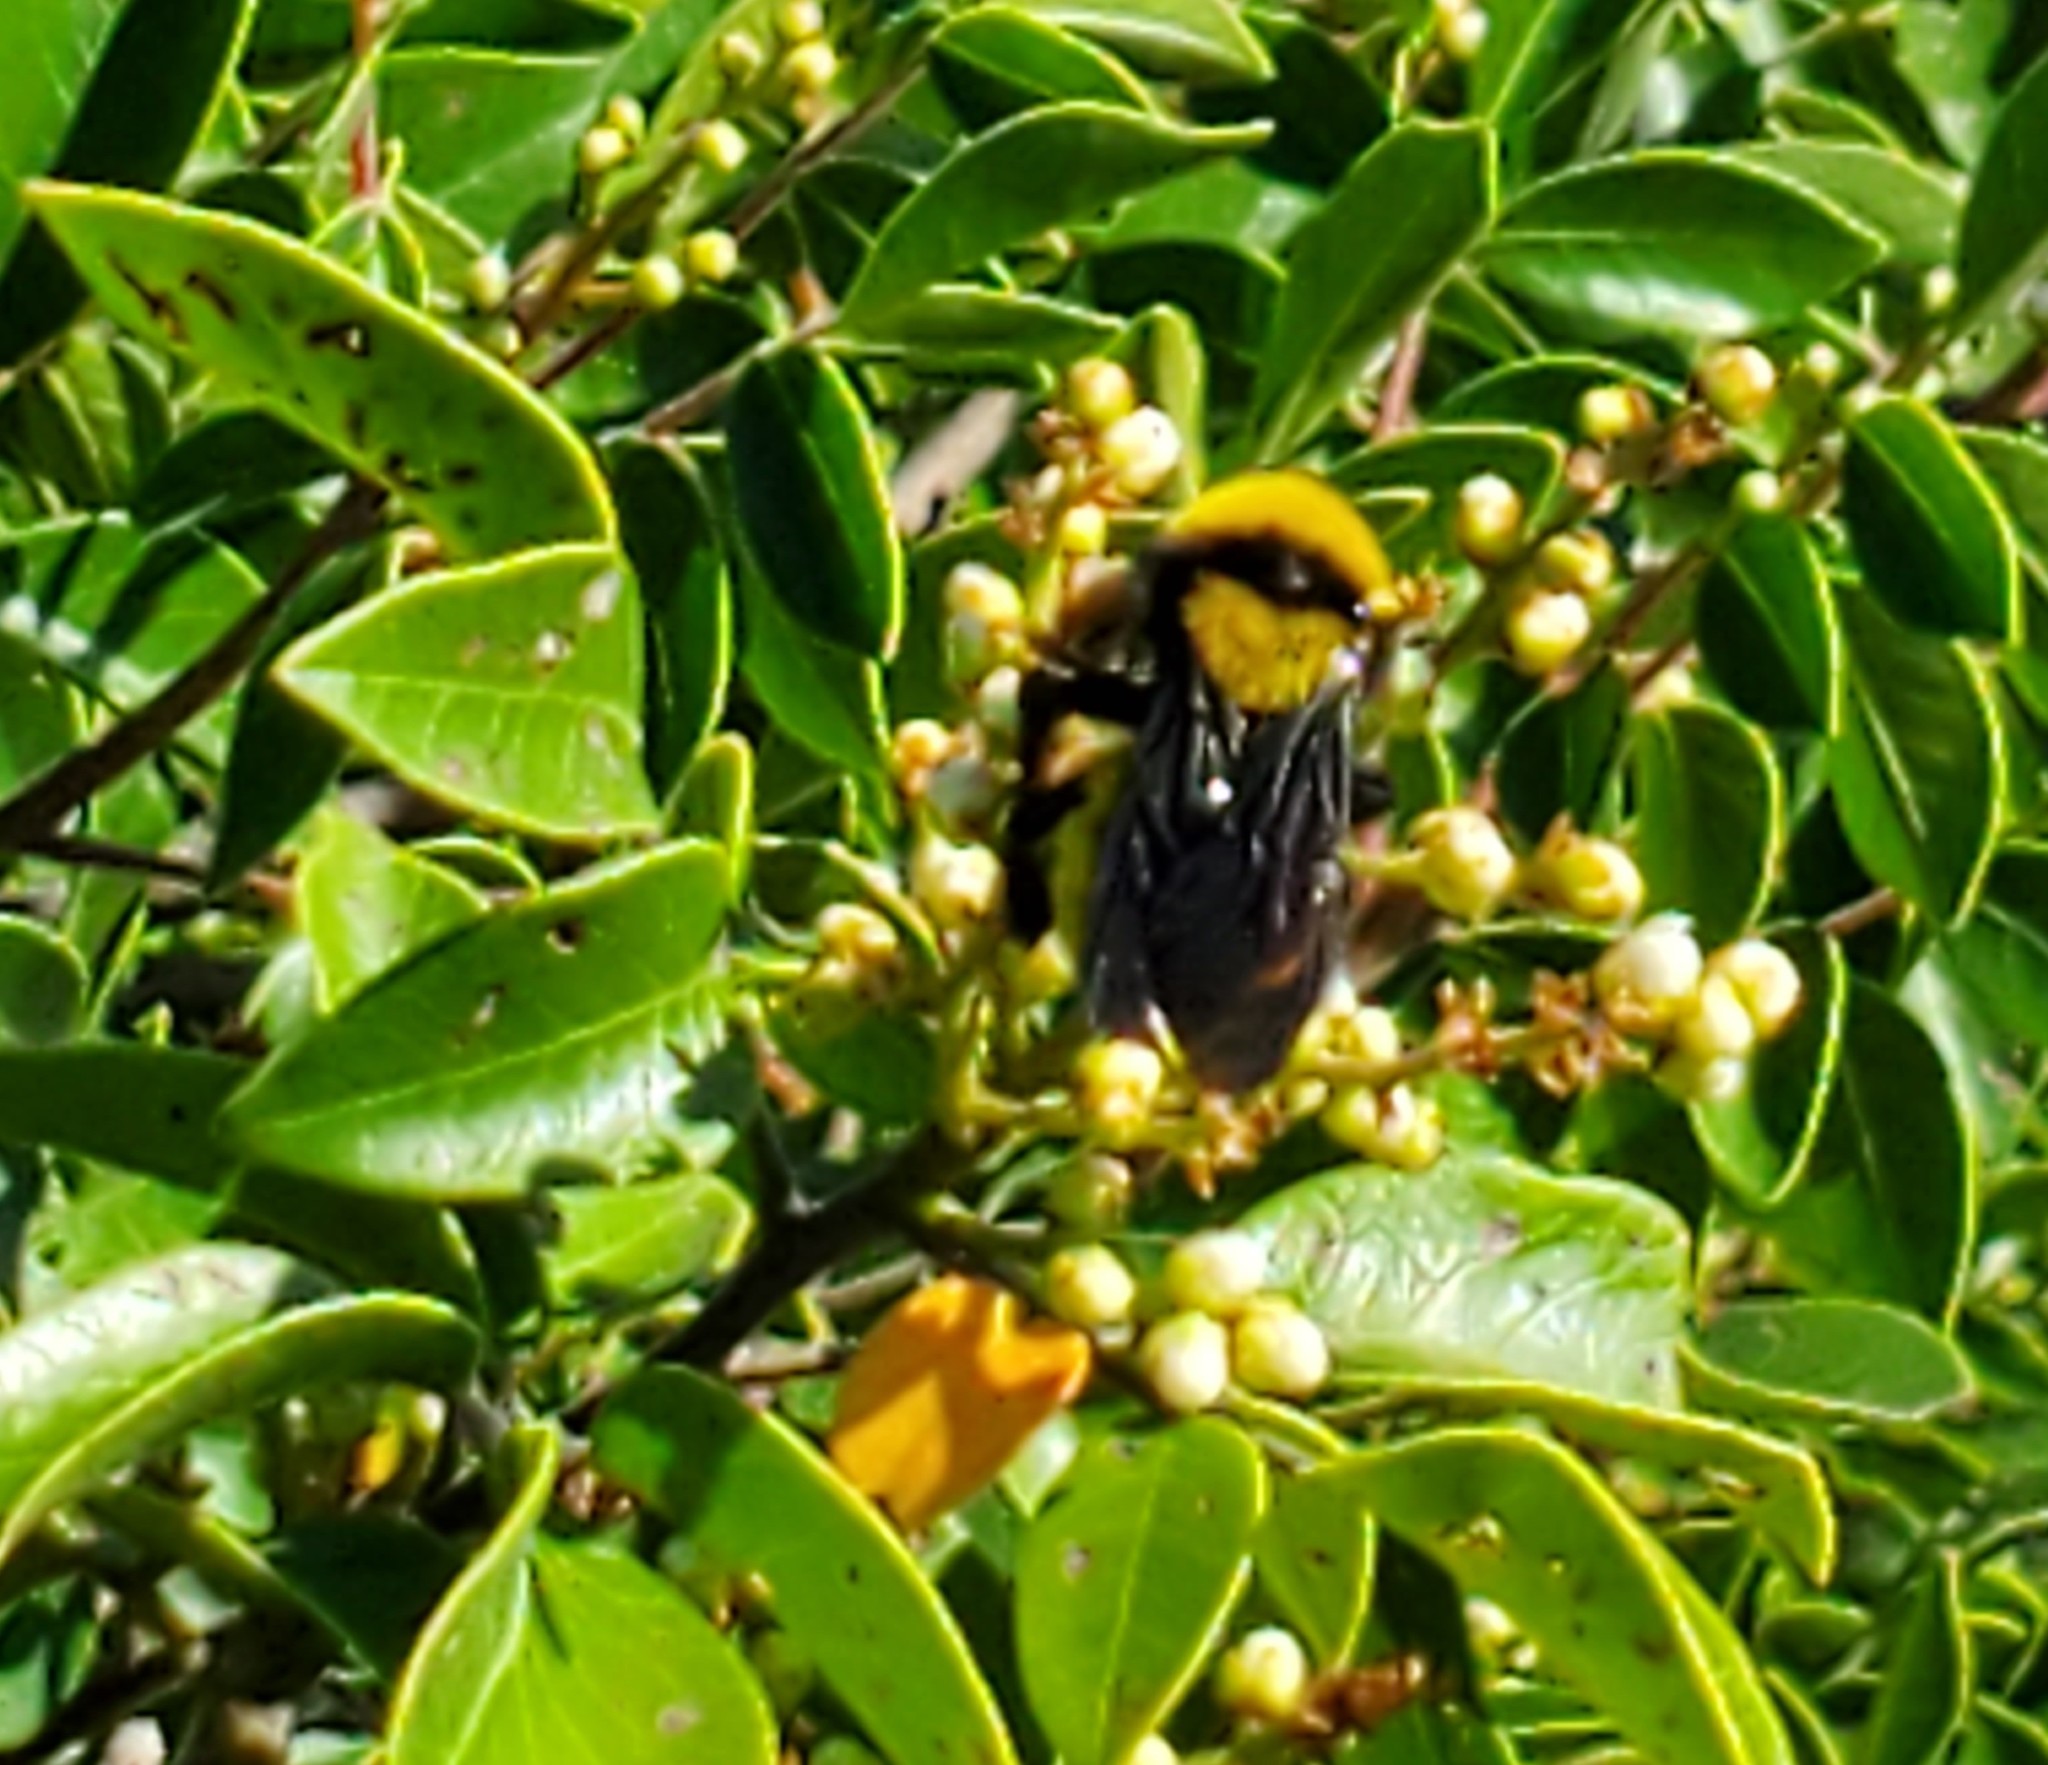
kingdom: Animalia
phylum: Arthropoda
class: Insecta
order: Hymenoptera
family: Apidae
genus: Bombus
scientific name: Bombus sonorus
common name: Sonoran bumble bee
